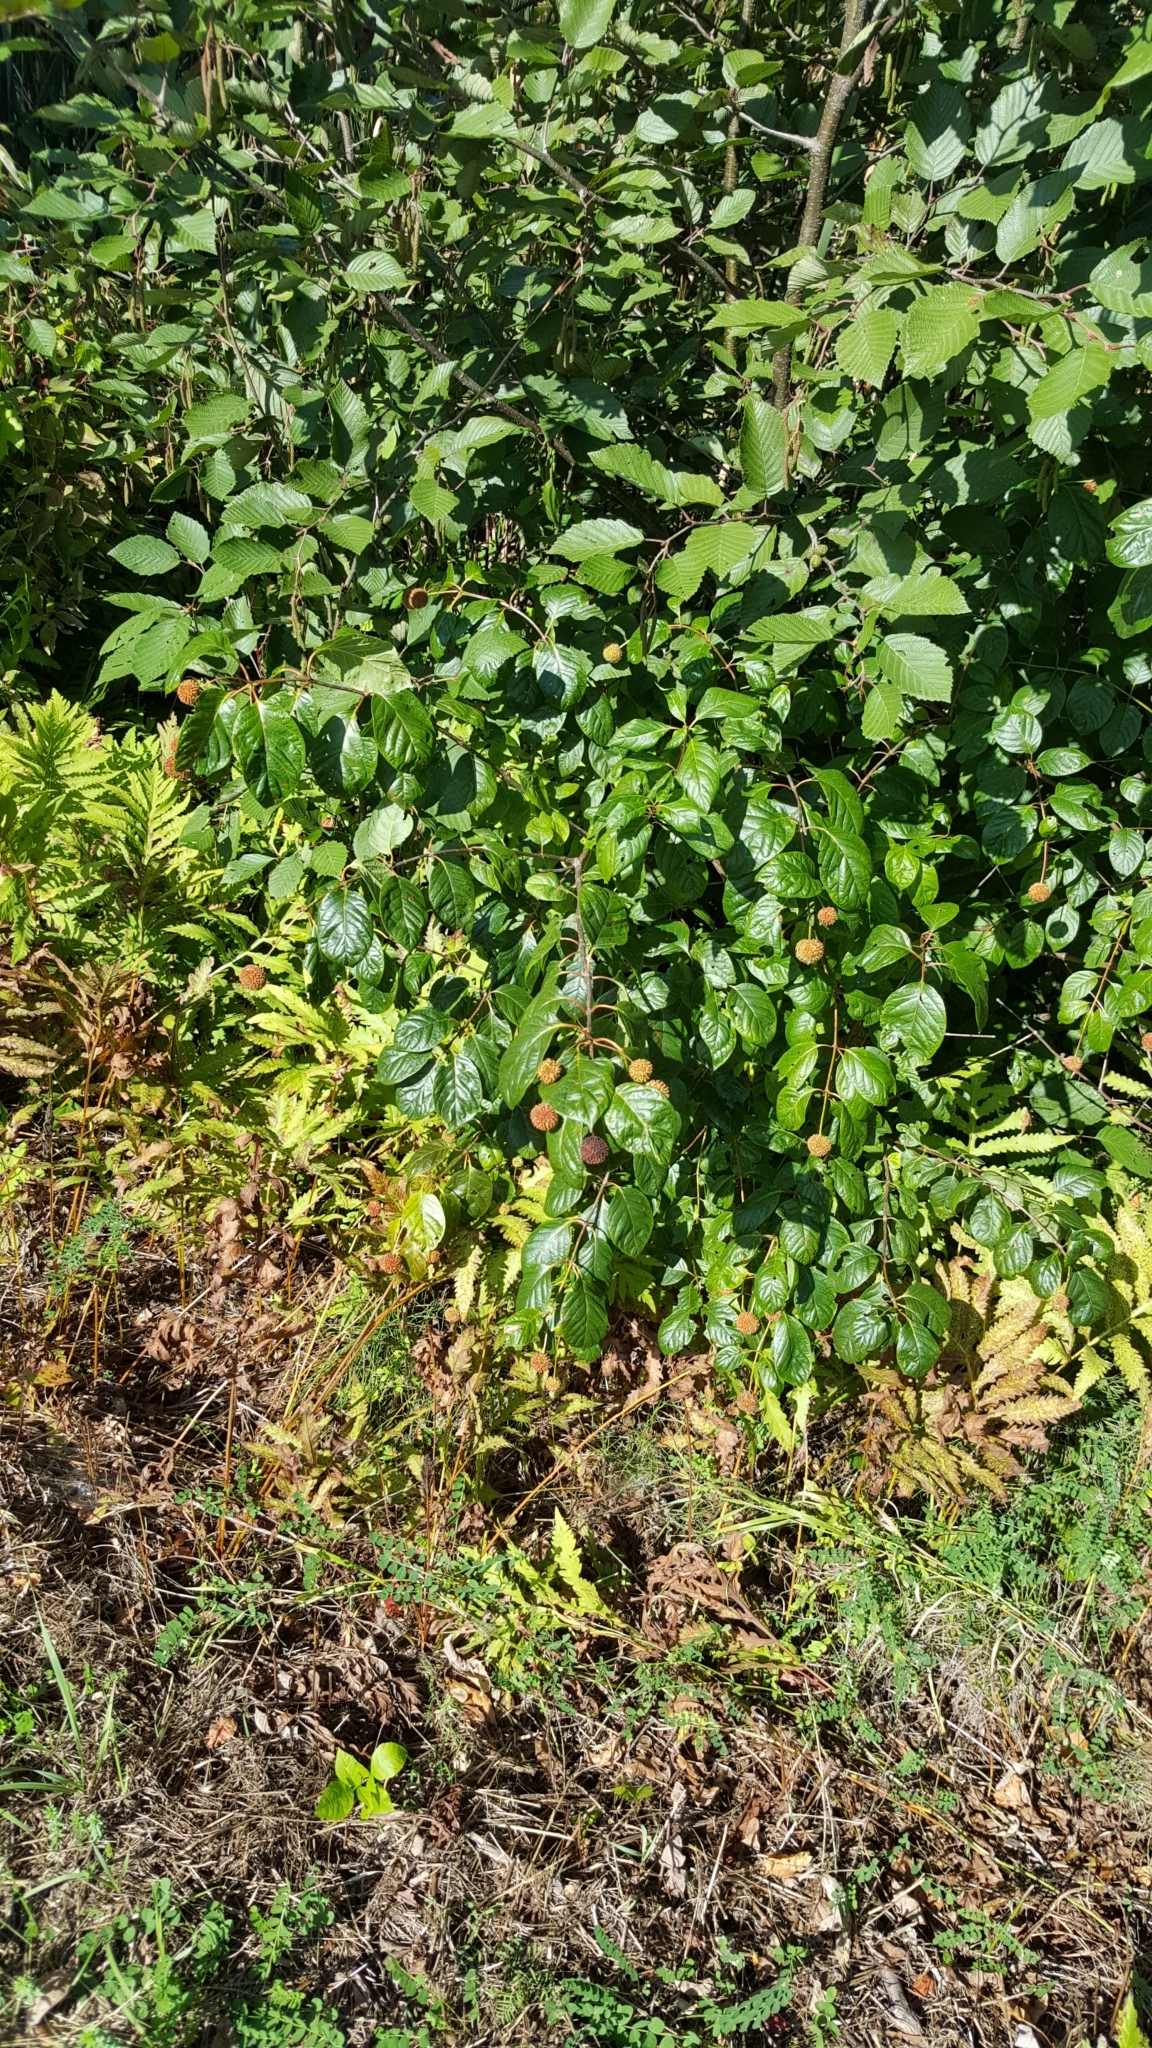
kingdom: Plantae
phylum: Tracheophyta
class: Magnoliopsida
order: Gentianales
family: Rubiaceae
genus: Cephalanthus
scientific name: Cephalanthus occidentalis
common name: Button-willow
